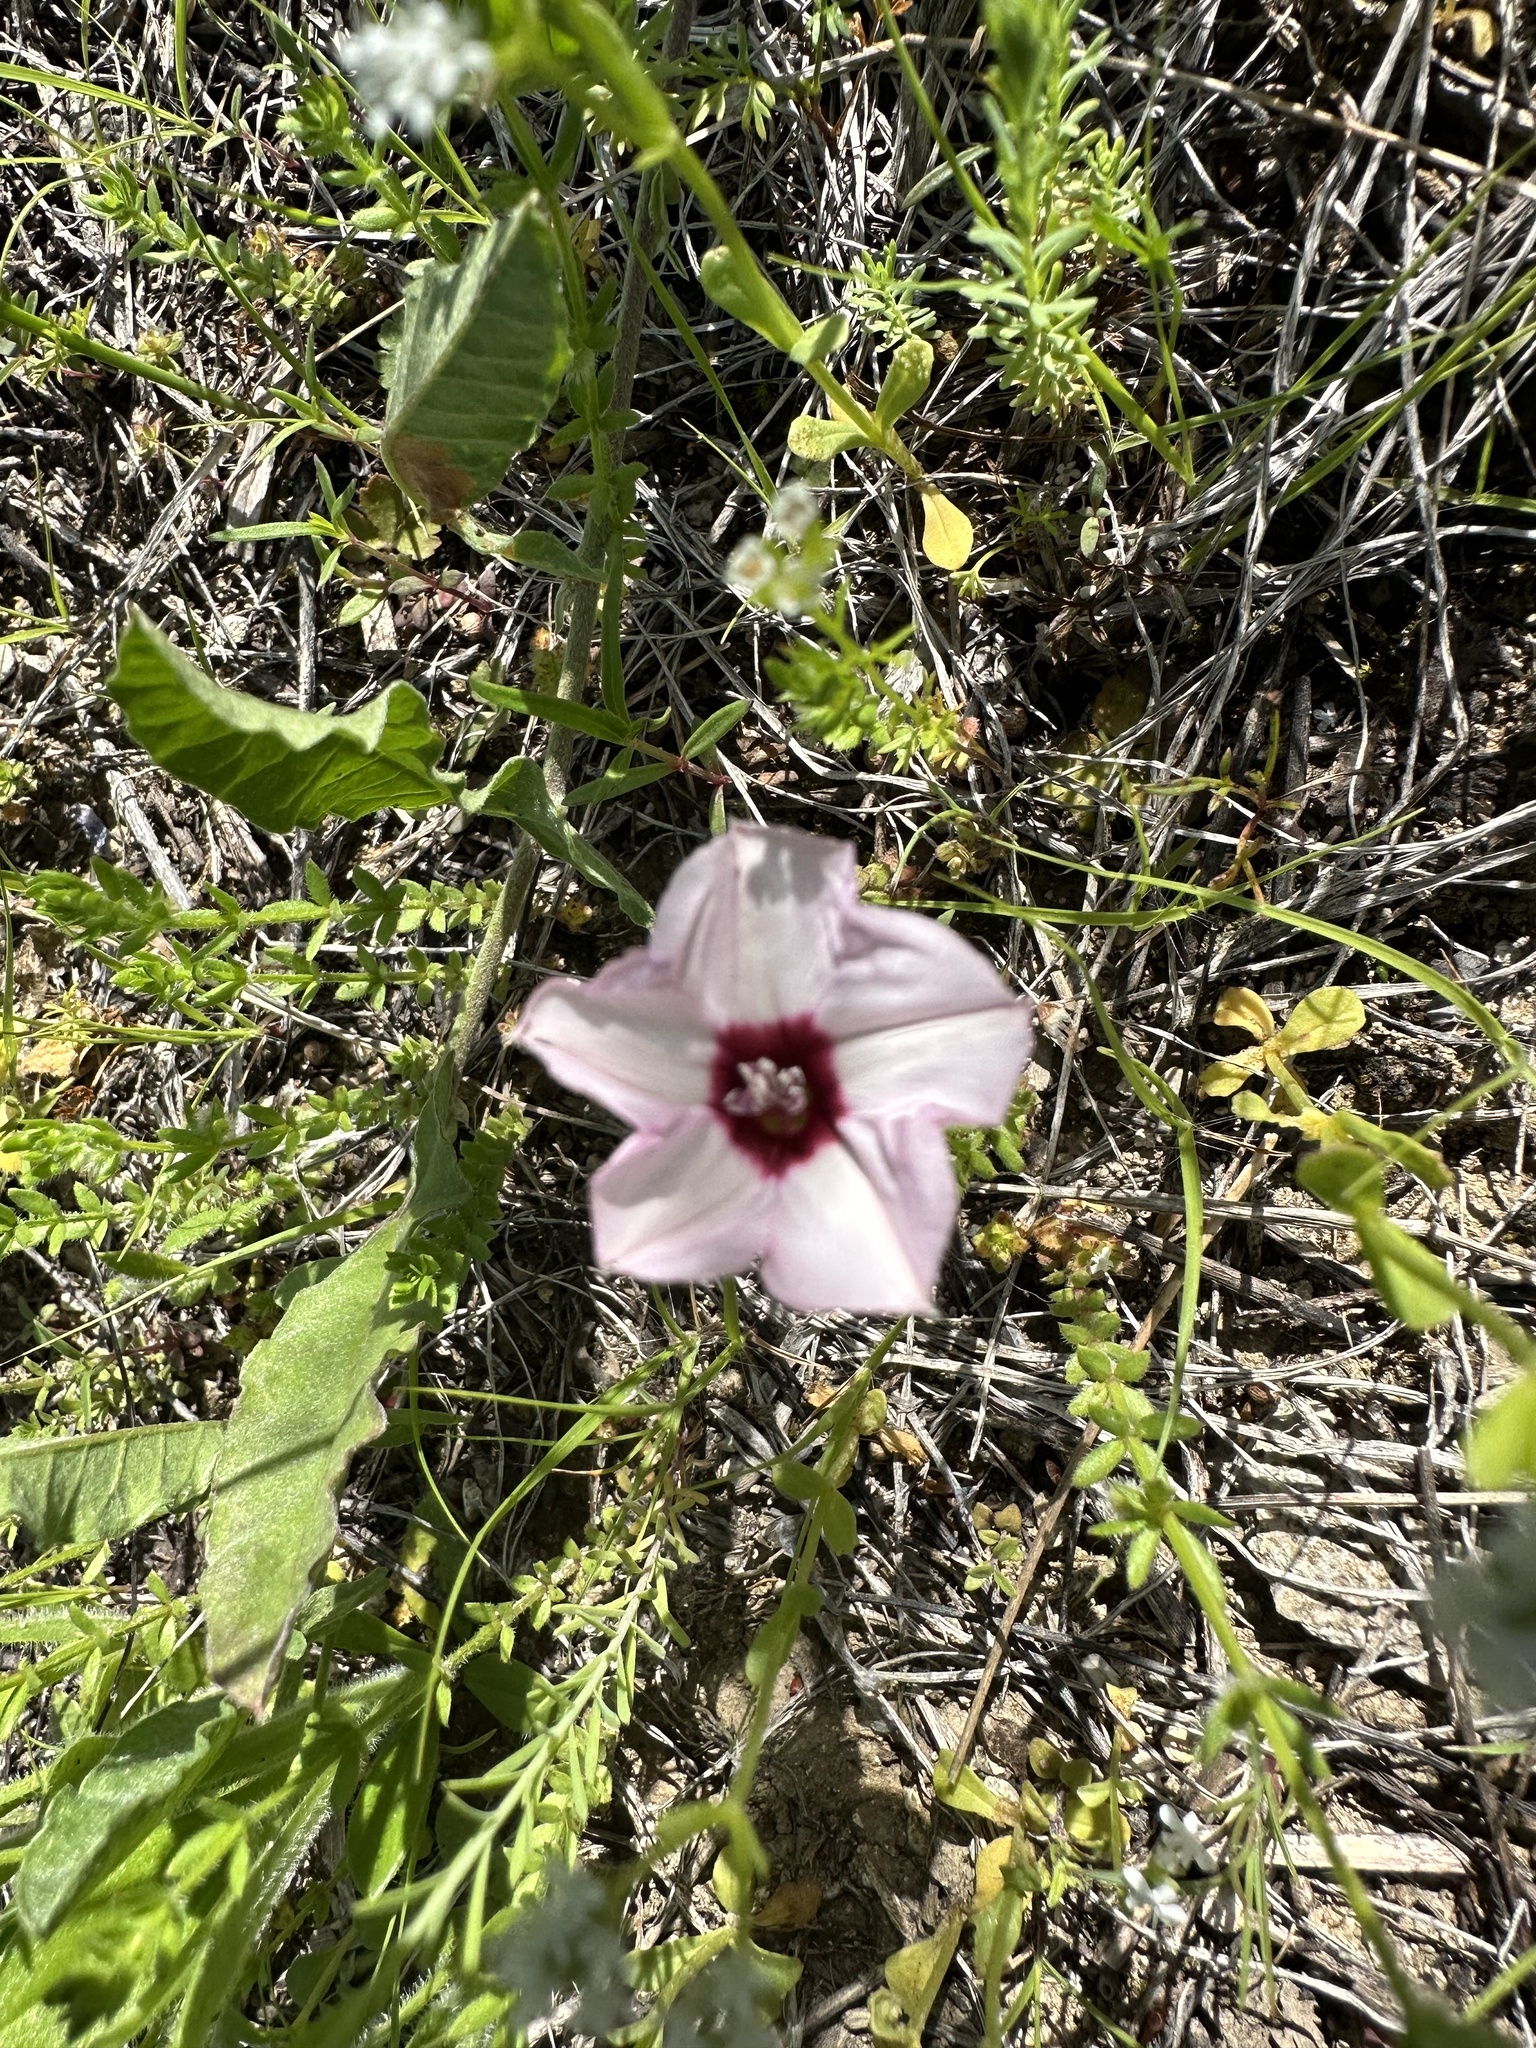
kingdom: Plantae
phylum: Tracheophyta
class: Magnoliopsida
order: Solanales
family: Convolvulaceae
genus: Convolvulus
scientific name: Convolvulus equitans
